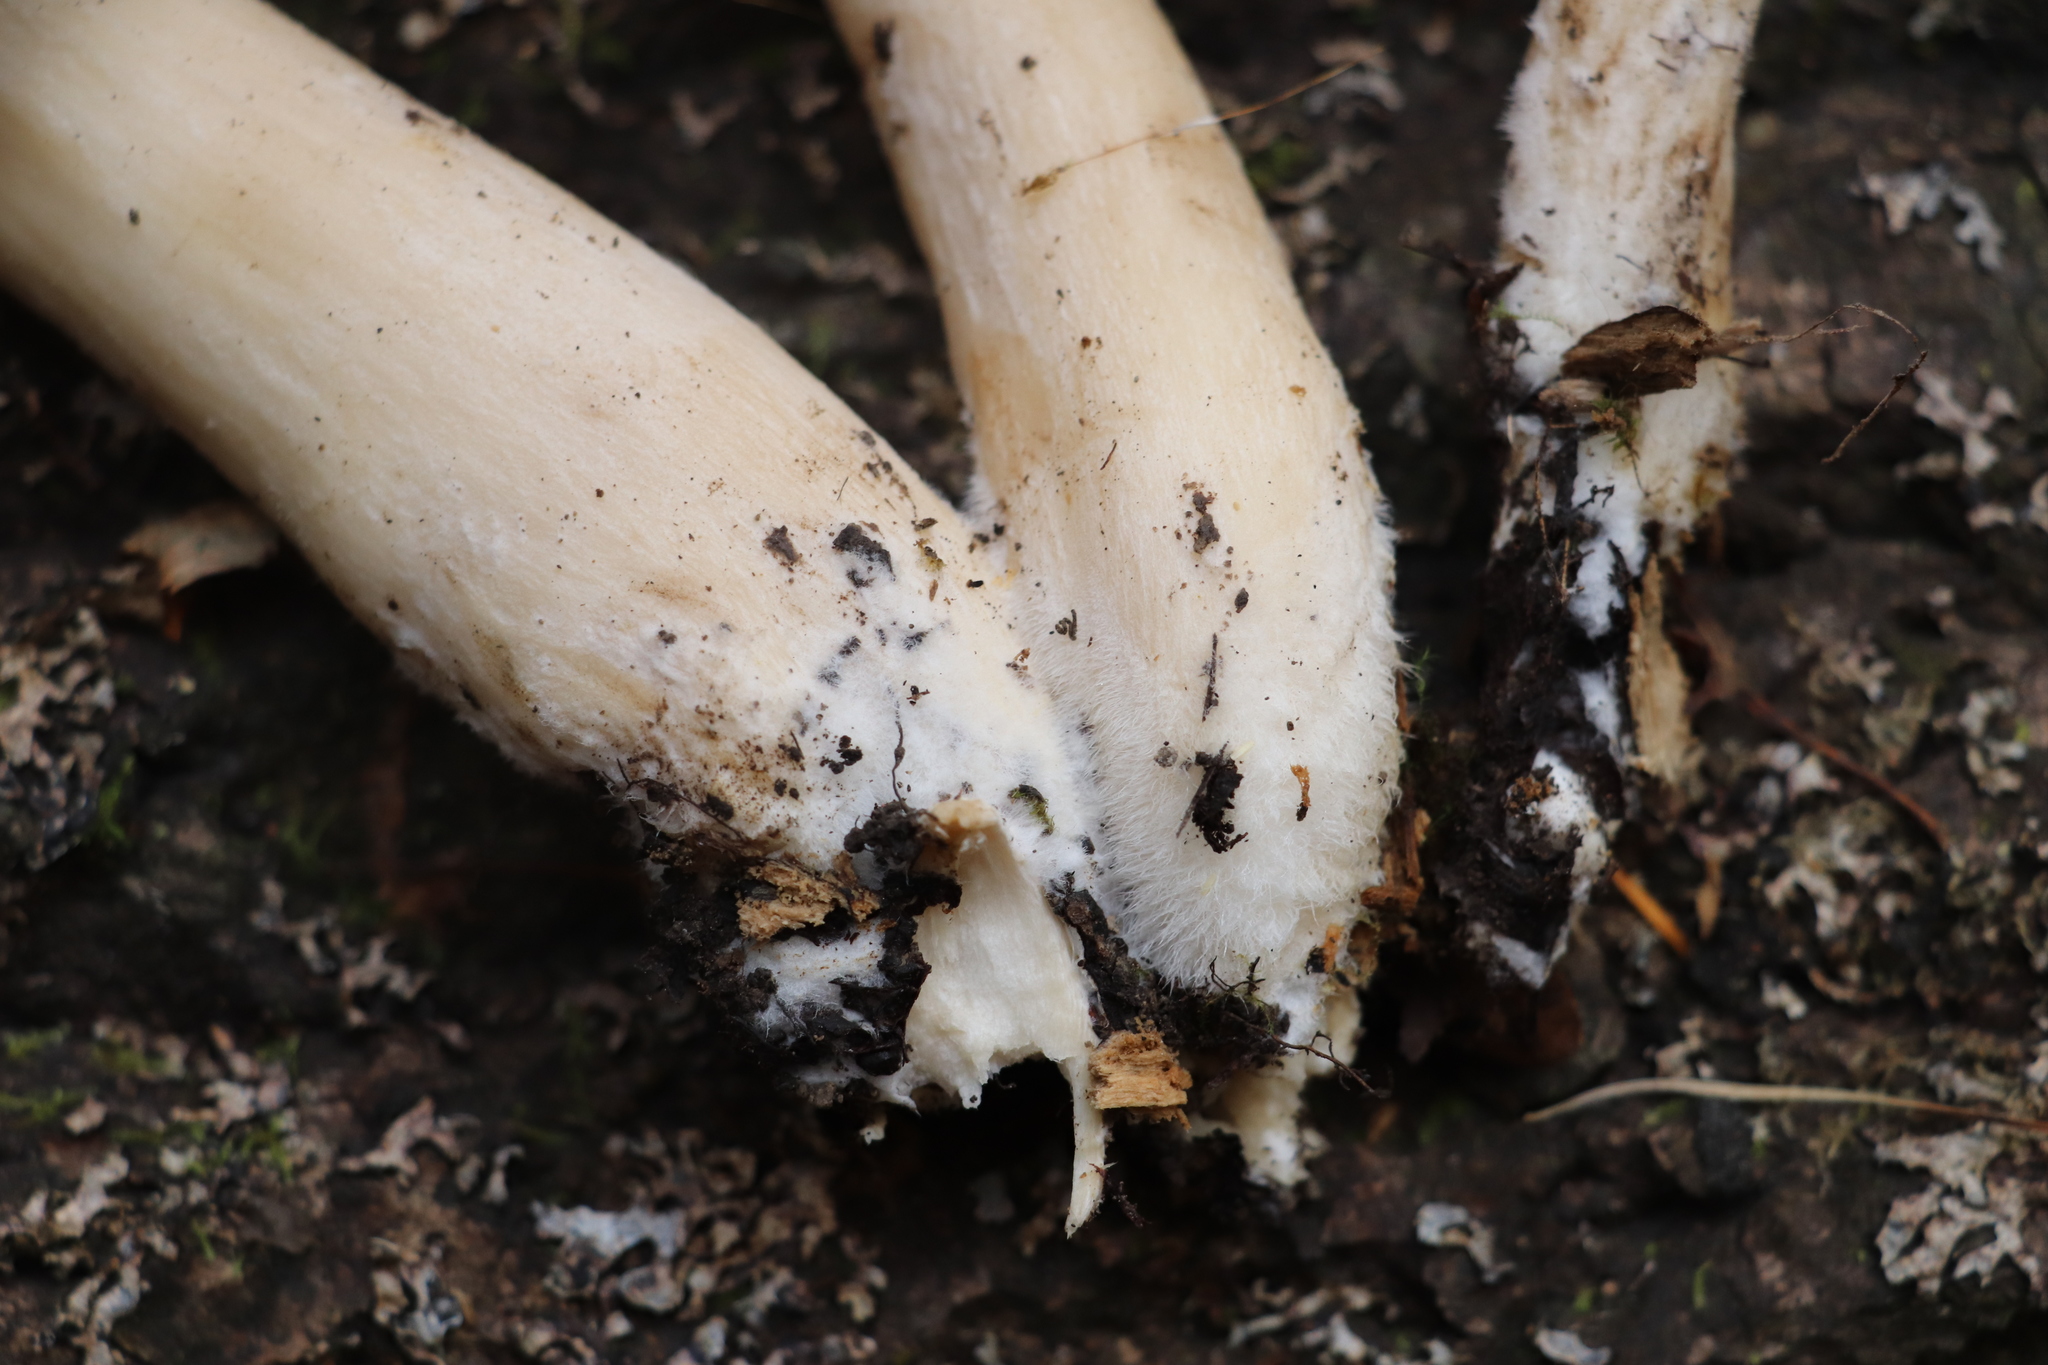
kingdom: Fungi
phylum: Basidiomycota
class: Agaricomycetes
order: Agaricales
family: Lyophyllaceae
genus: Hypsizygus
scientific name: Hypsizygus ulmarius
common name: Elm leech
